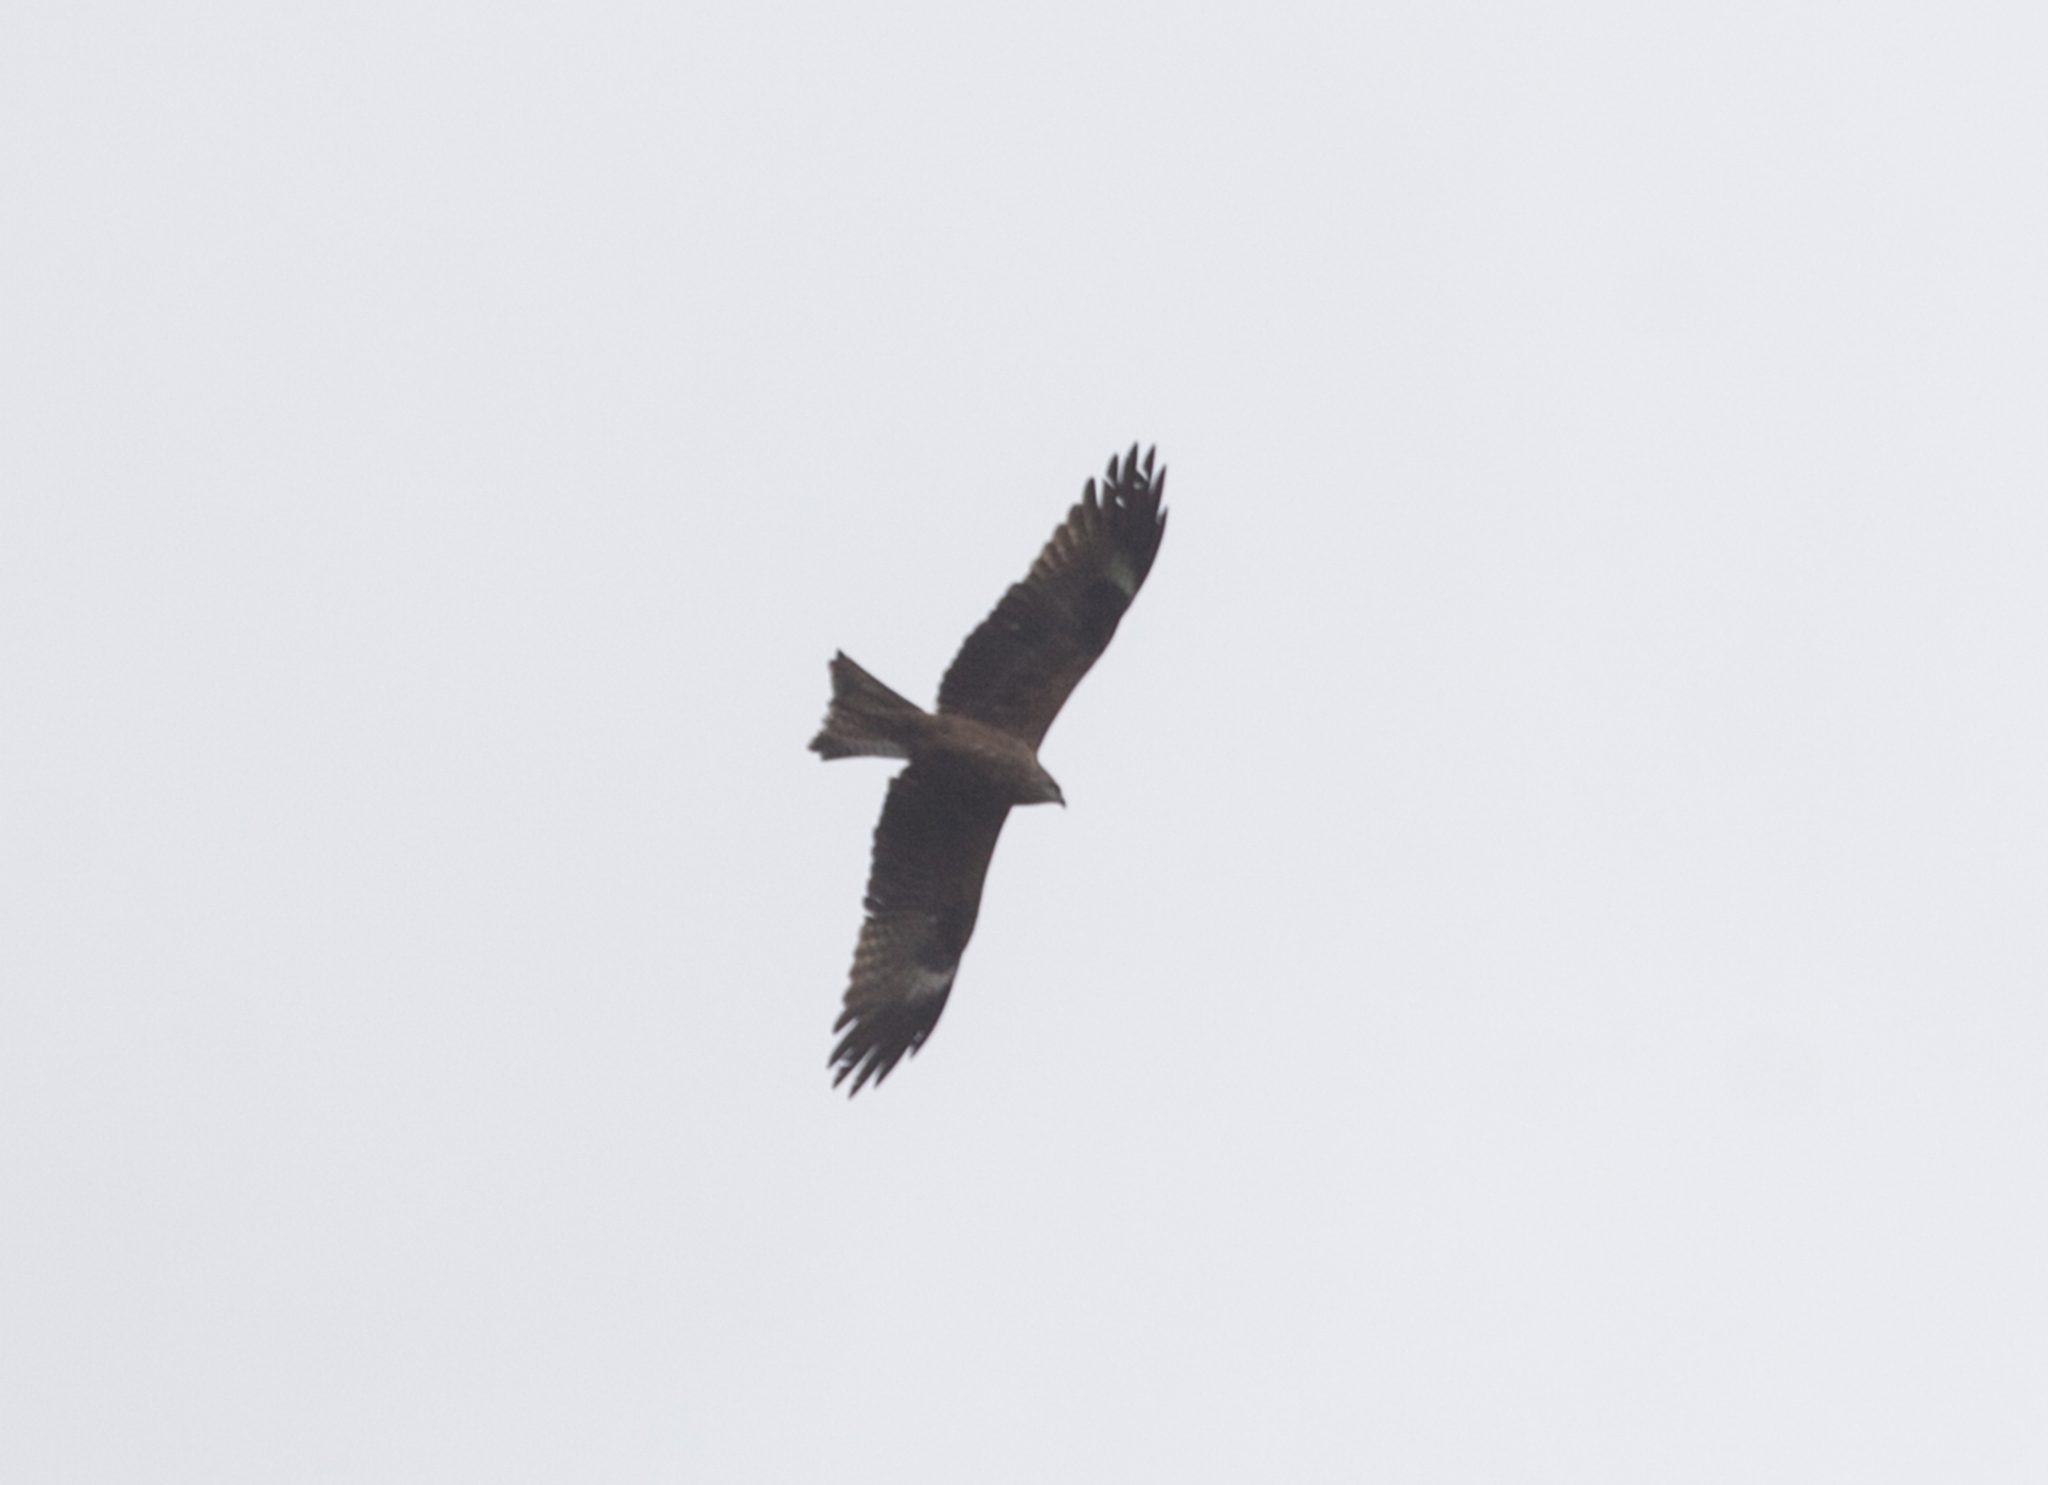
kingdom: Animalia
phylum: Chordata
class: Aves
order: Accipitriformes
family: Accipitridae
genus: Milvus
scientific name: Milvus migrans
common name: Black kite
